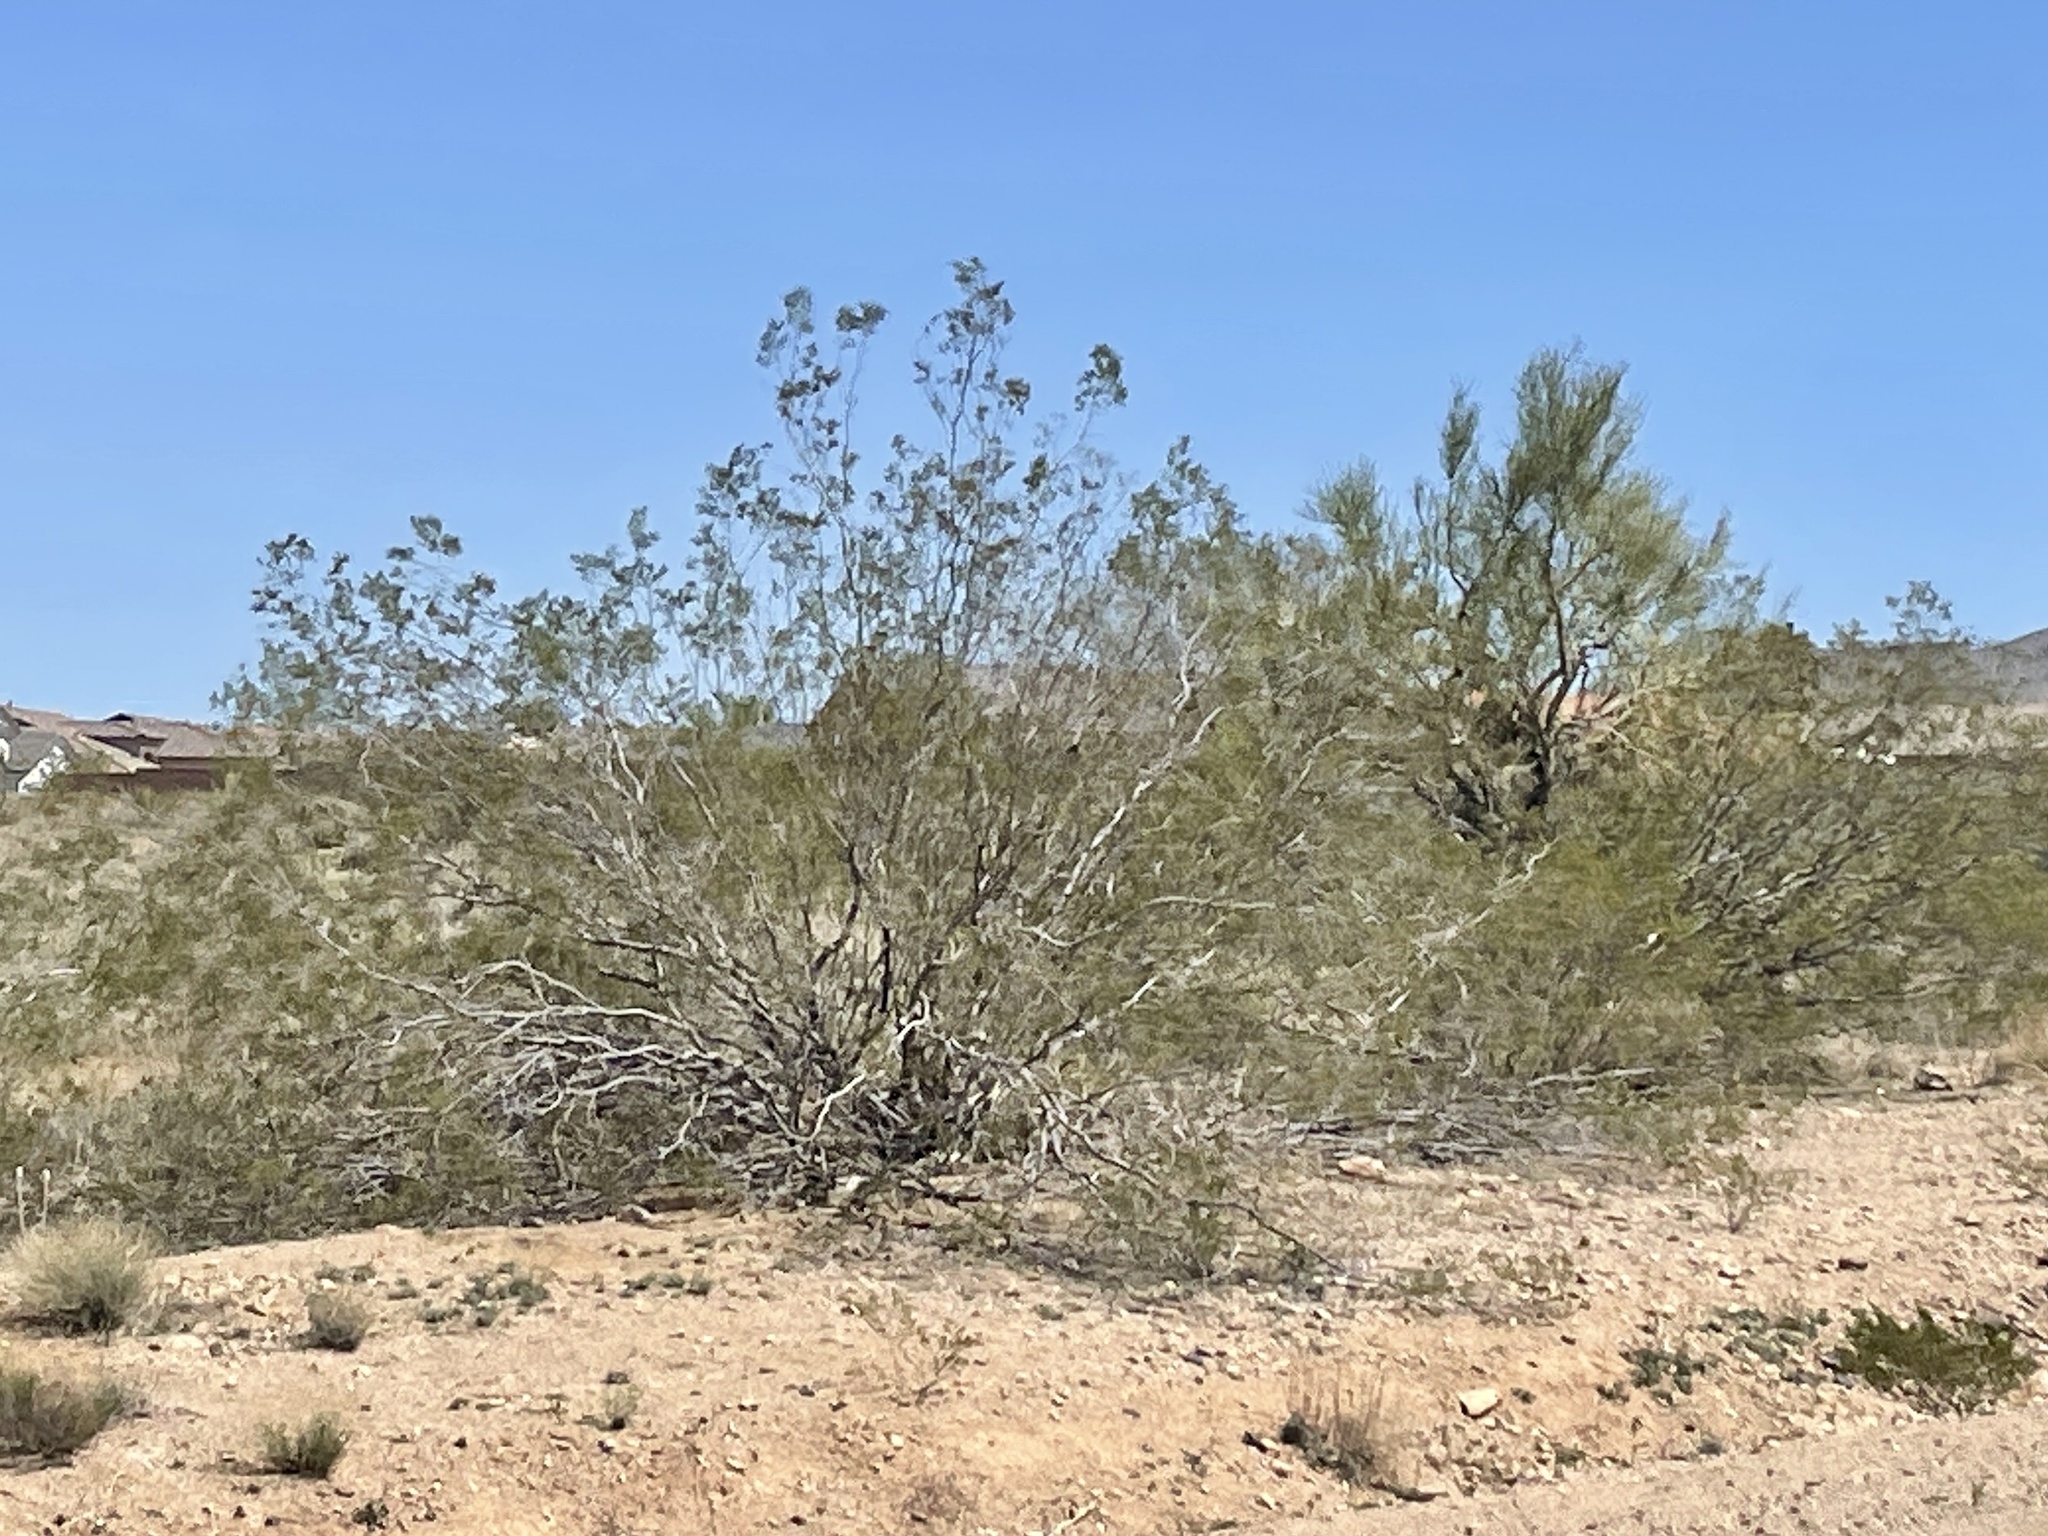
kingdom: Plantae
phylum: Tracheophyta
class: Magnoliopsida
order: Zygophyllales
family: Zygophyllaceae
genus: Larrea
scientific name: Larrea tridentata
